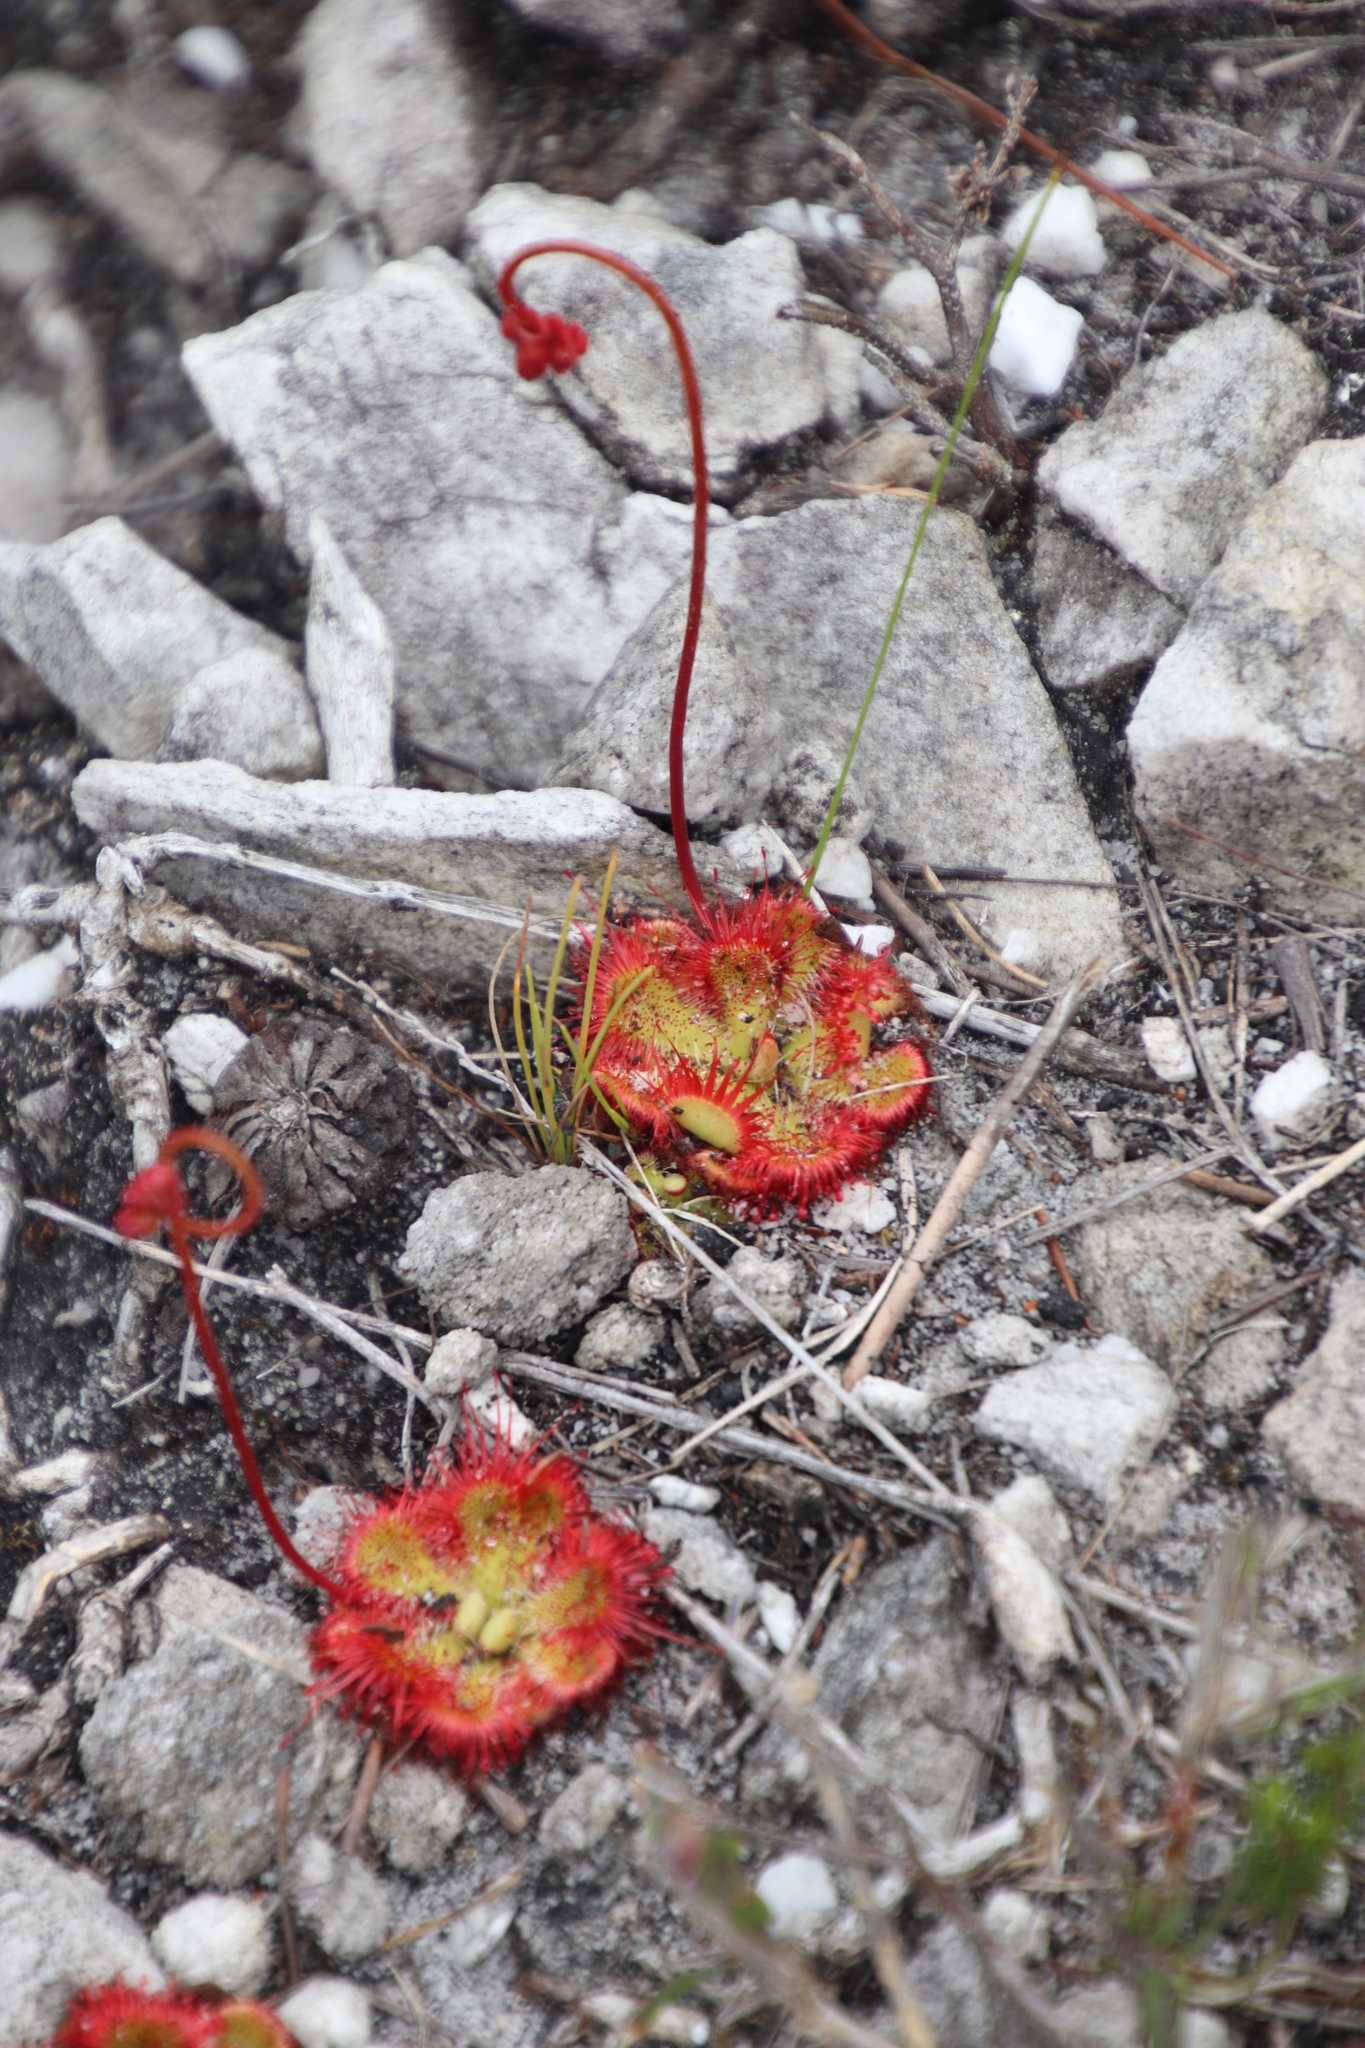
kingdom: Plantae
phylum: Tracheophyta
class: Magnoliopsida
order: Caryophyllales
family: Droseraceae
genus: Drosera
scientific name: Drosera xerophila
